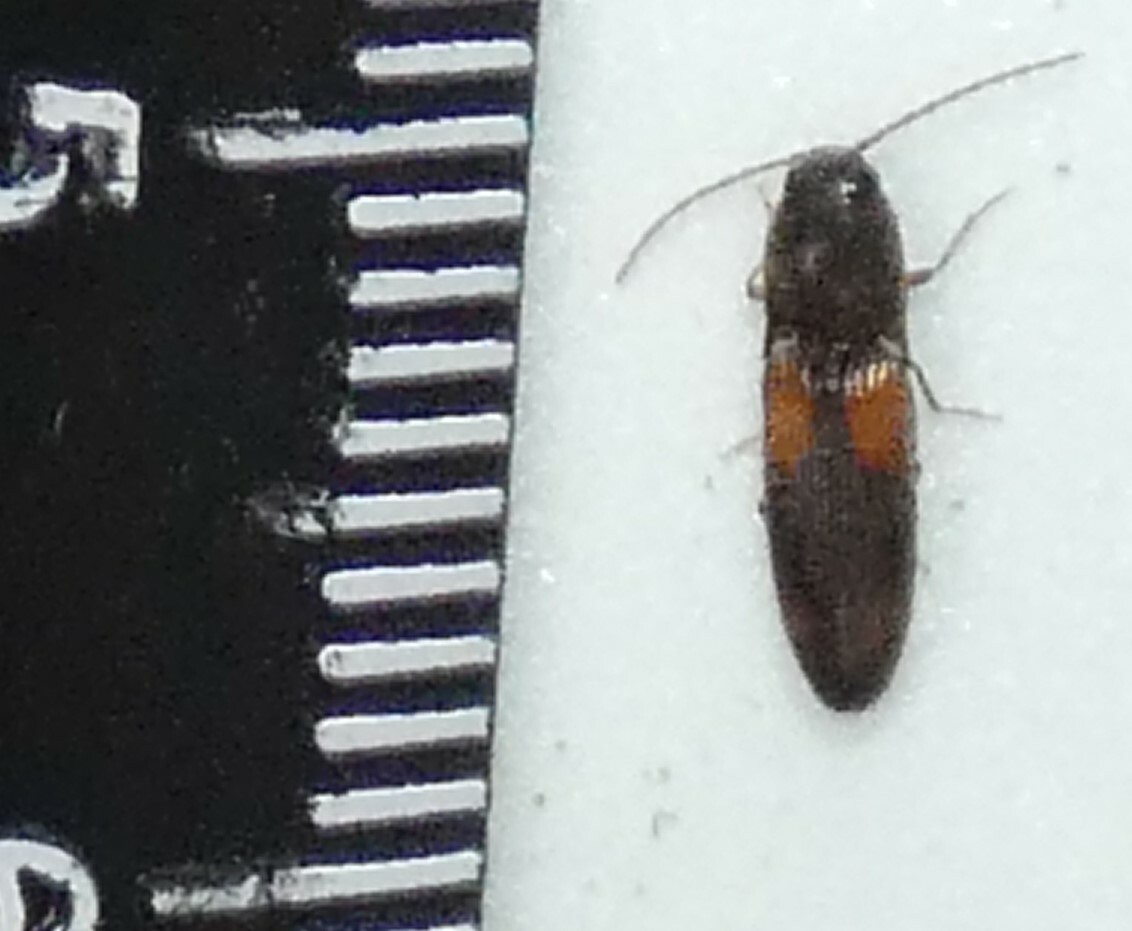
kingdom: Animalia
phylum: Arthropoda
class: Insecta
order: Coleoptera
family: Elateridae
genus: Anchastus
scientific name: Anchastus binus
